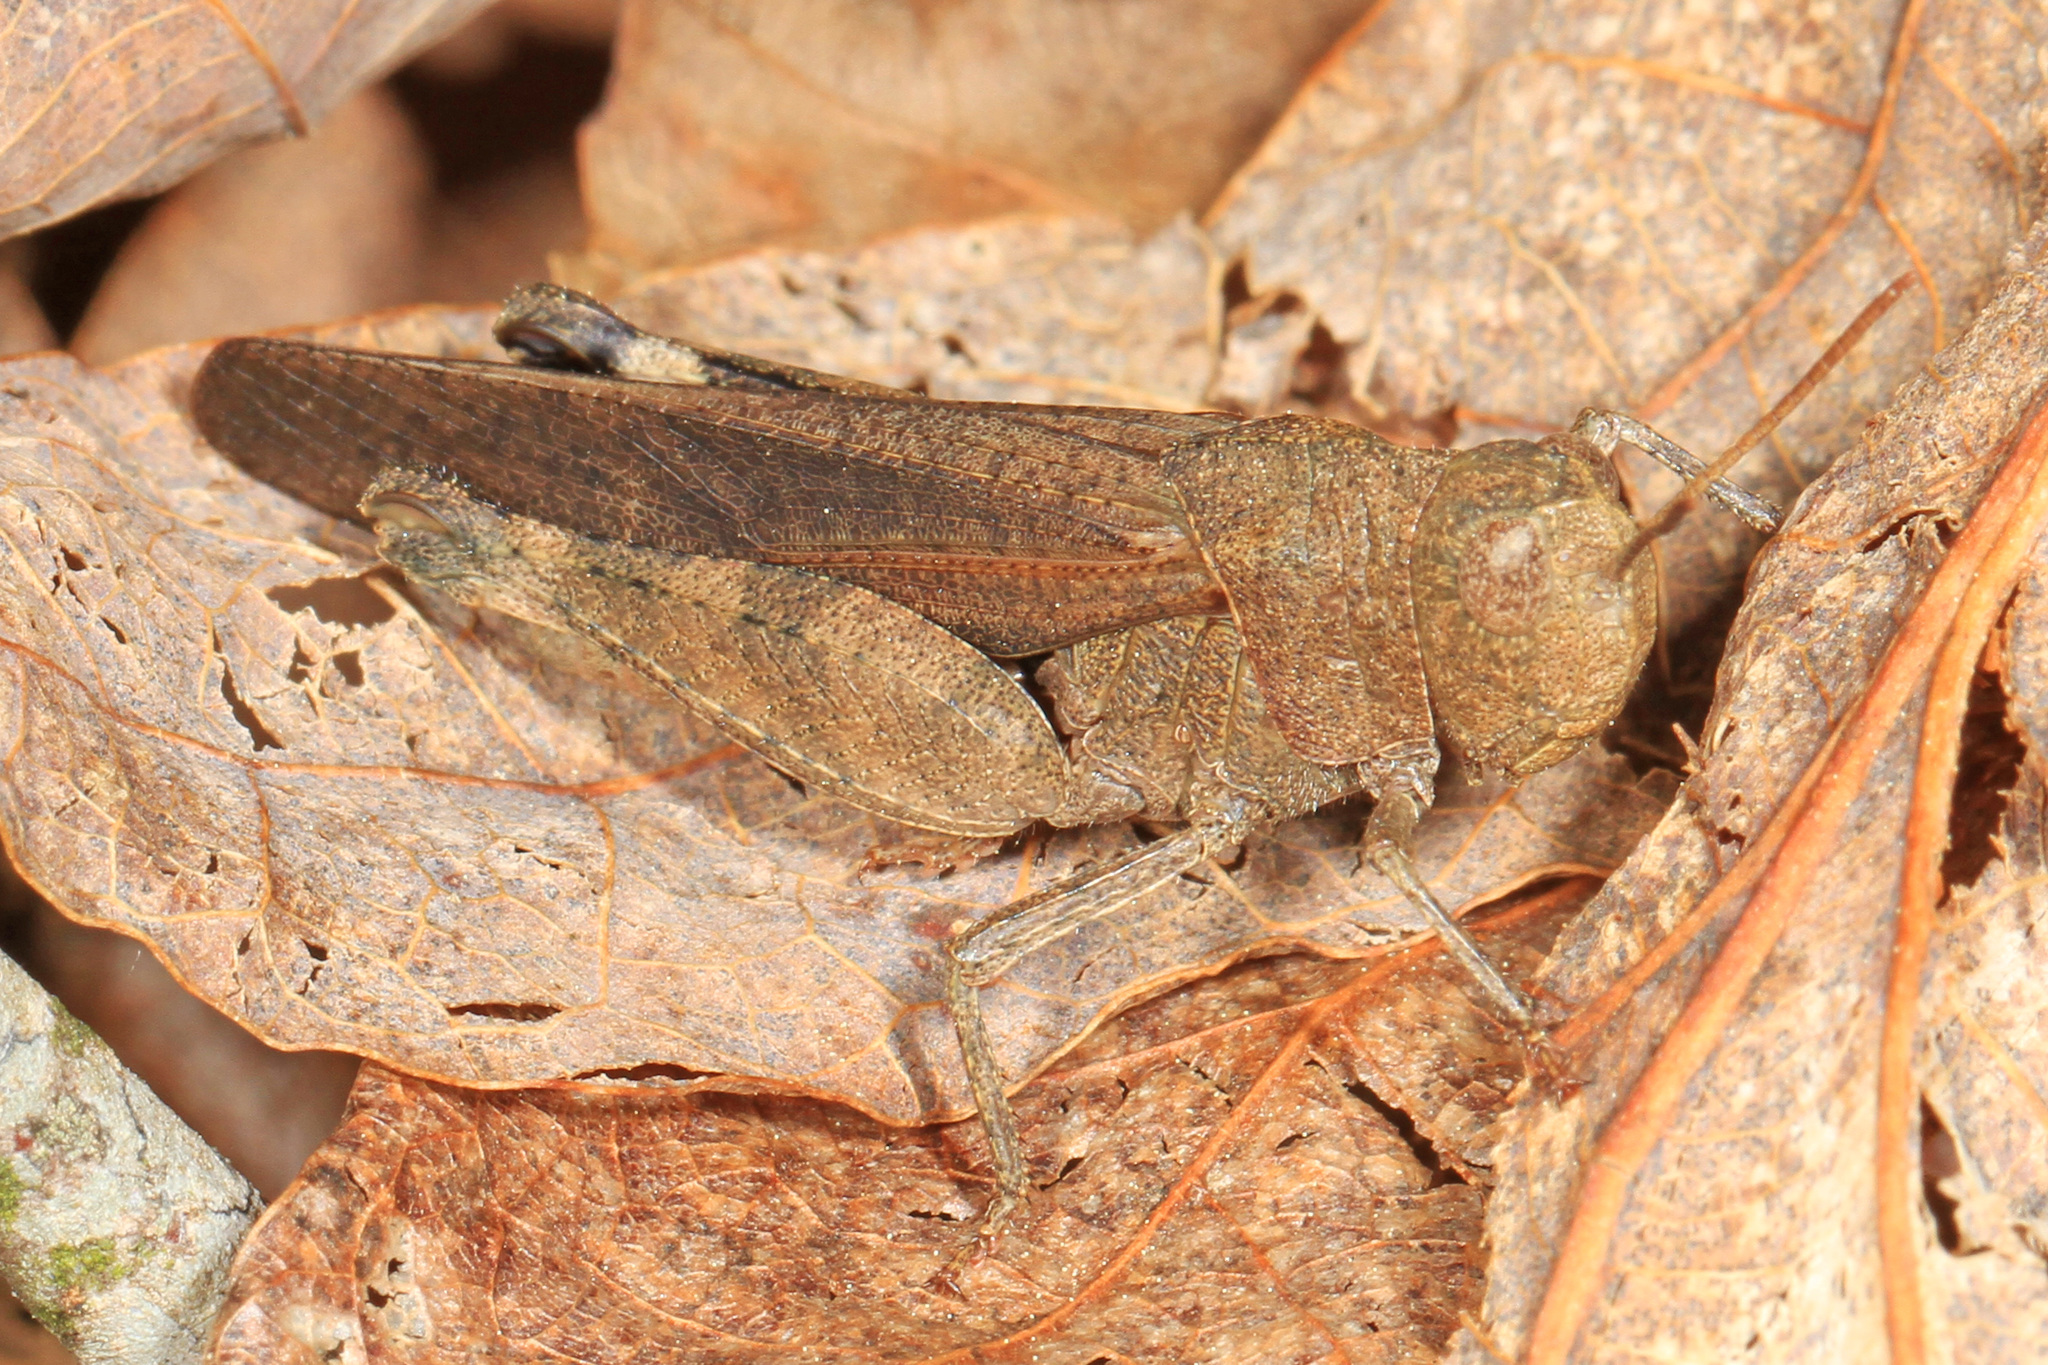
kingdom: Animalia
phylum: Arthropoda
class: Insecta
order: Orthoptera
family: Acrididae
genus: Arphia
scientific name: Arphia sulphurea
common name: Spring yellow-winged locust
